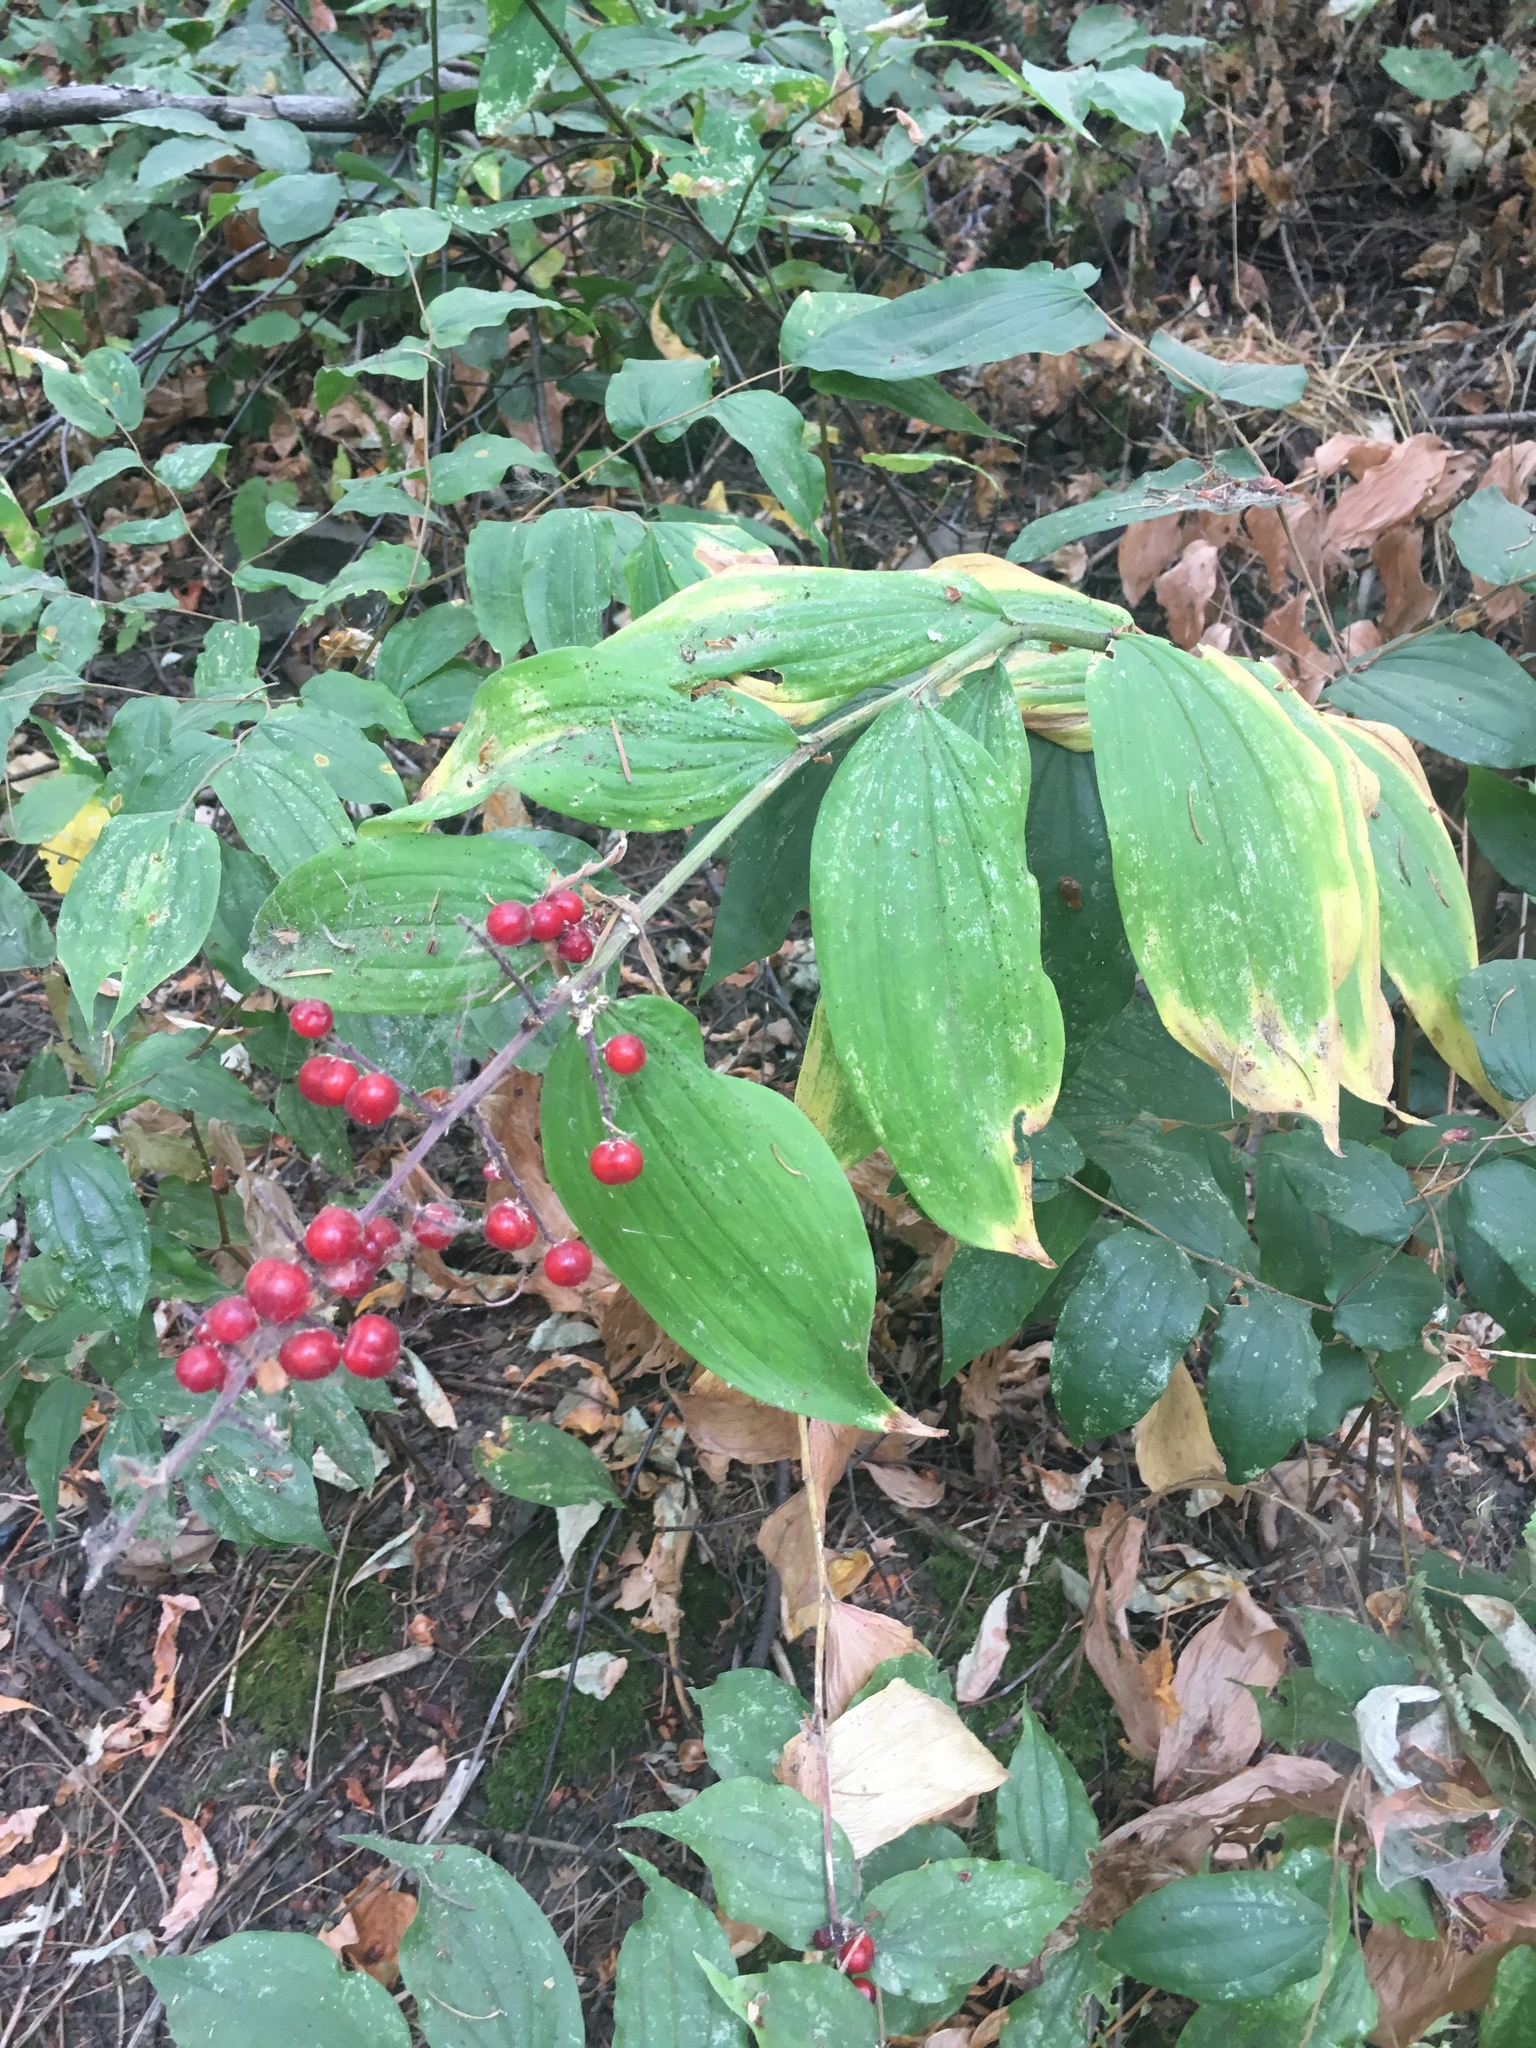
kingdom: Plantae
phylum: Tracheophyta
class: Liliopsida
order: Asparagales
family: Asparagaceae
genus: Maianthemum
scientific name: Maianthemum racemosum
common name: False spikenard
